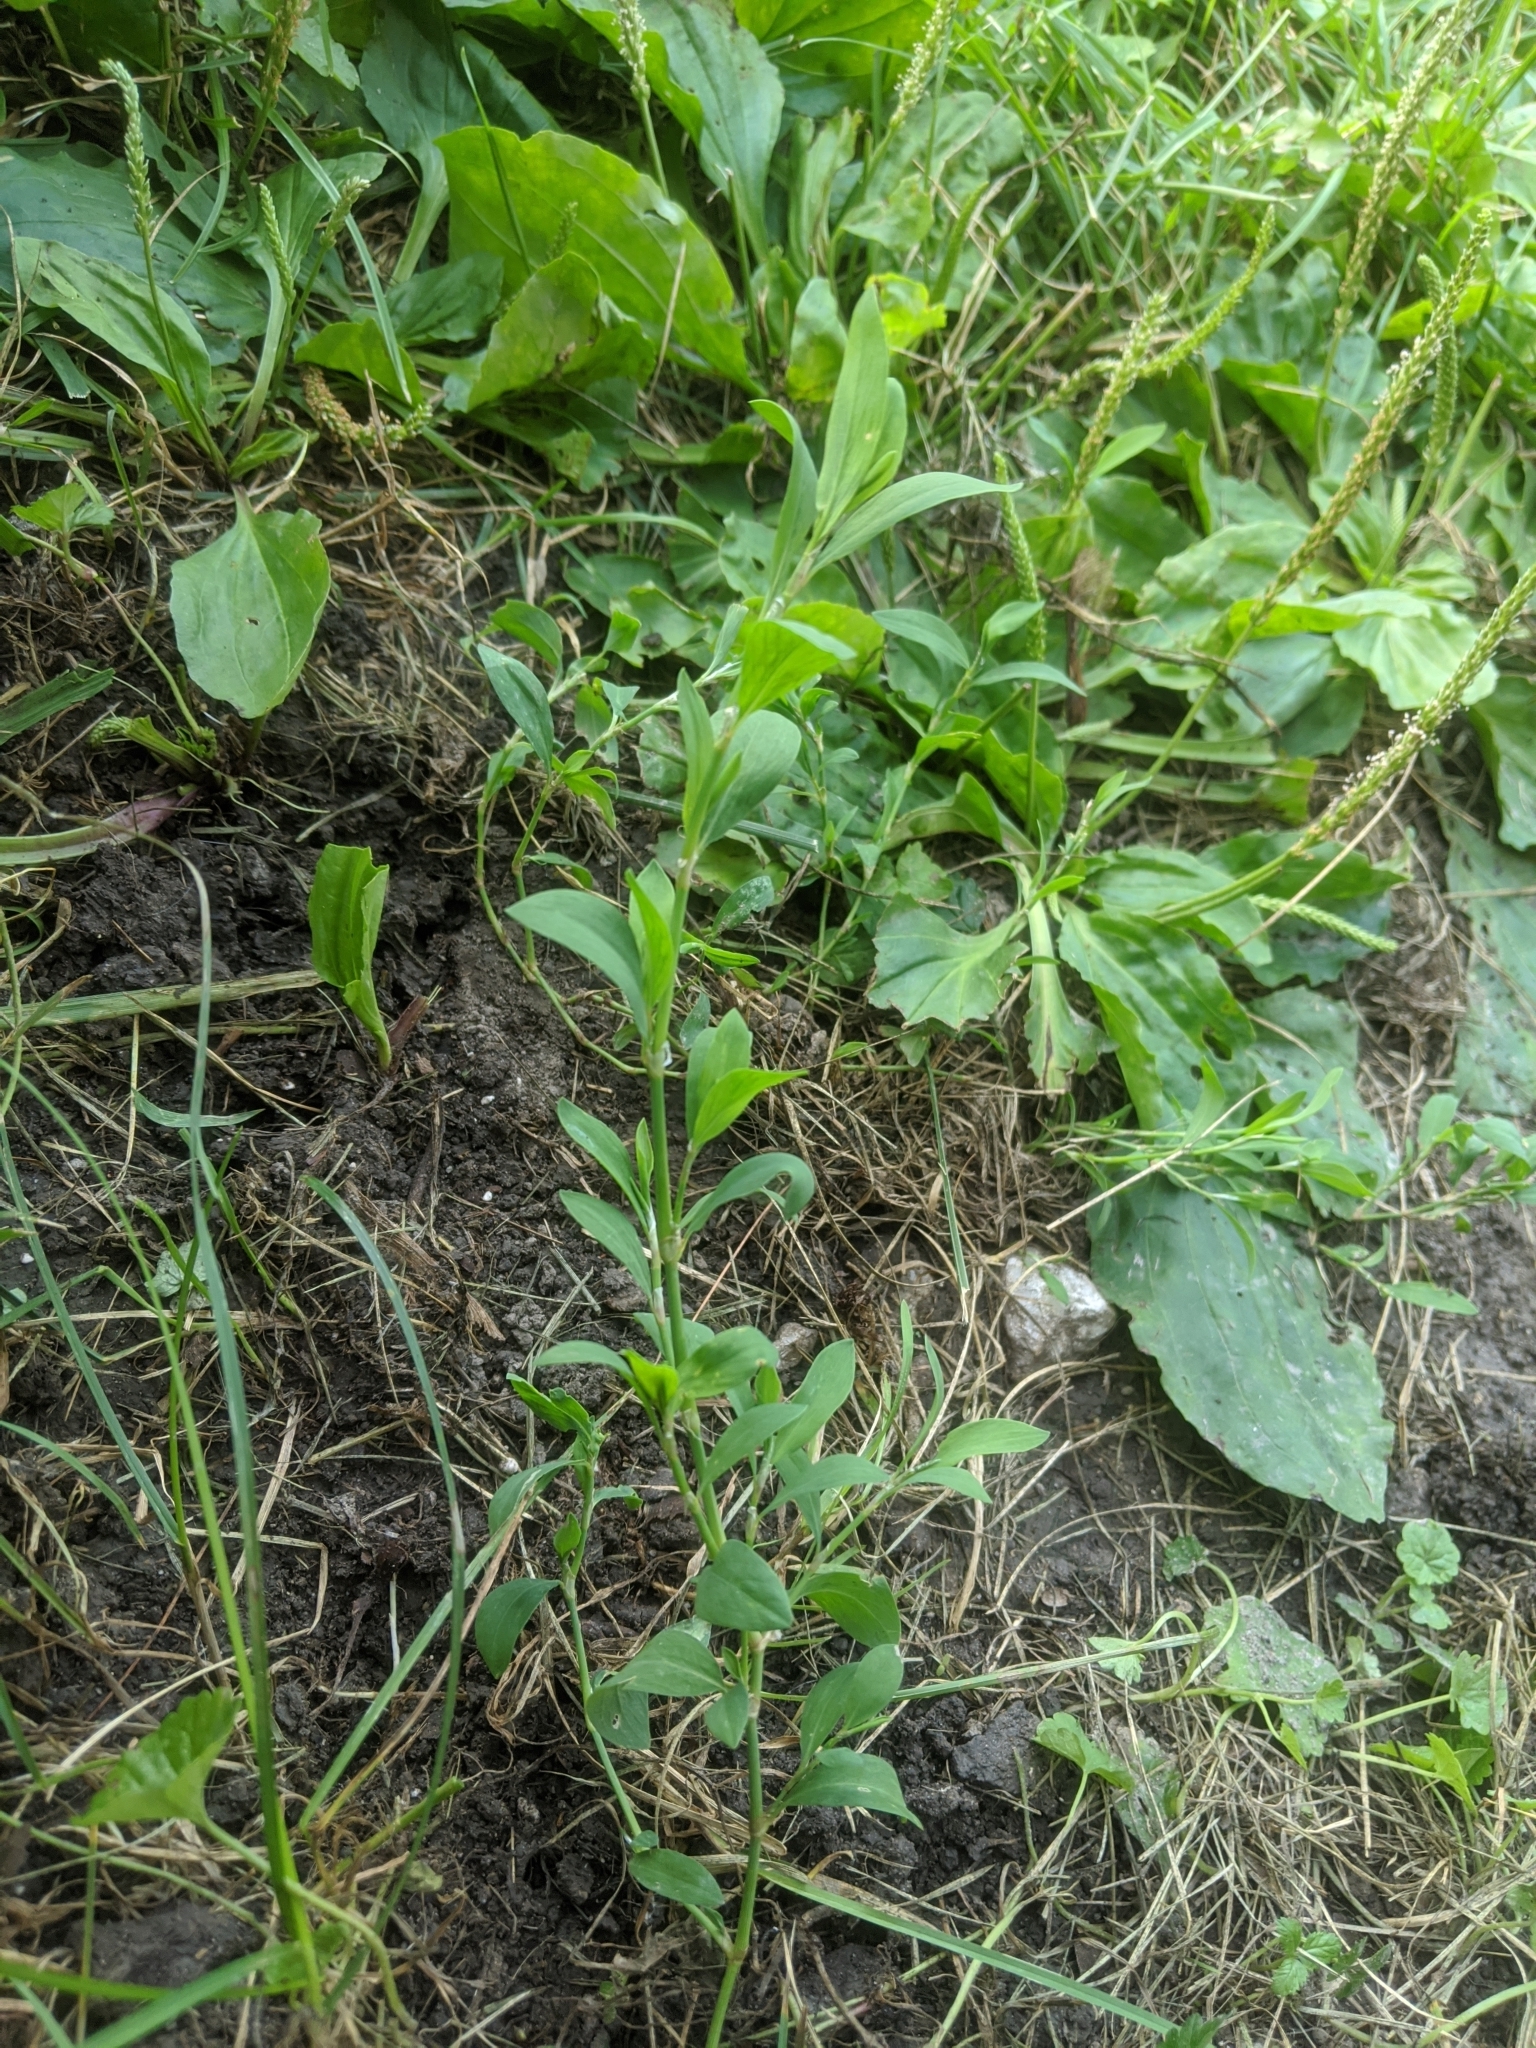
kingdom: Plantae
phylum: Tracheophyta
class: Magnoliopsida
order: Brassicales
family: Brassicaceae
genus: Berteroa
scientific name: Berteroa incana
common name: Hoary alison
